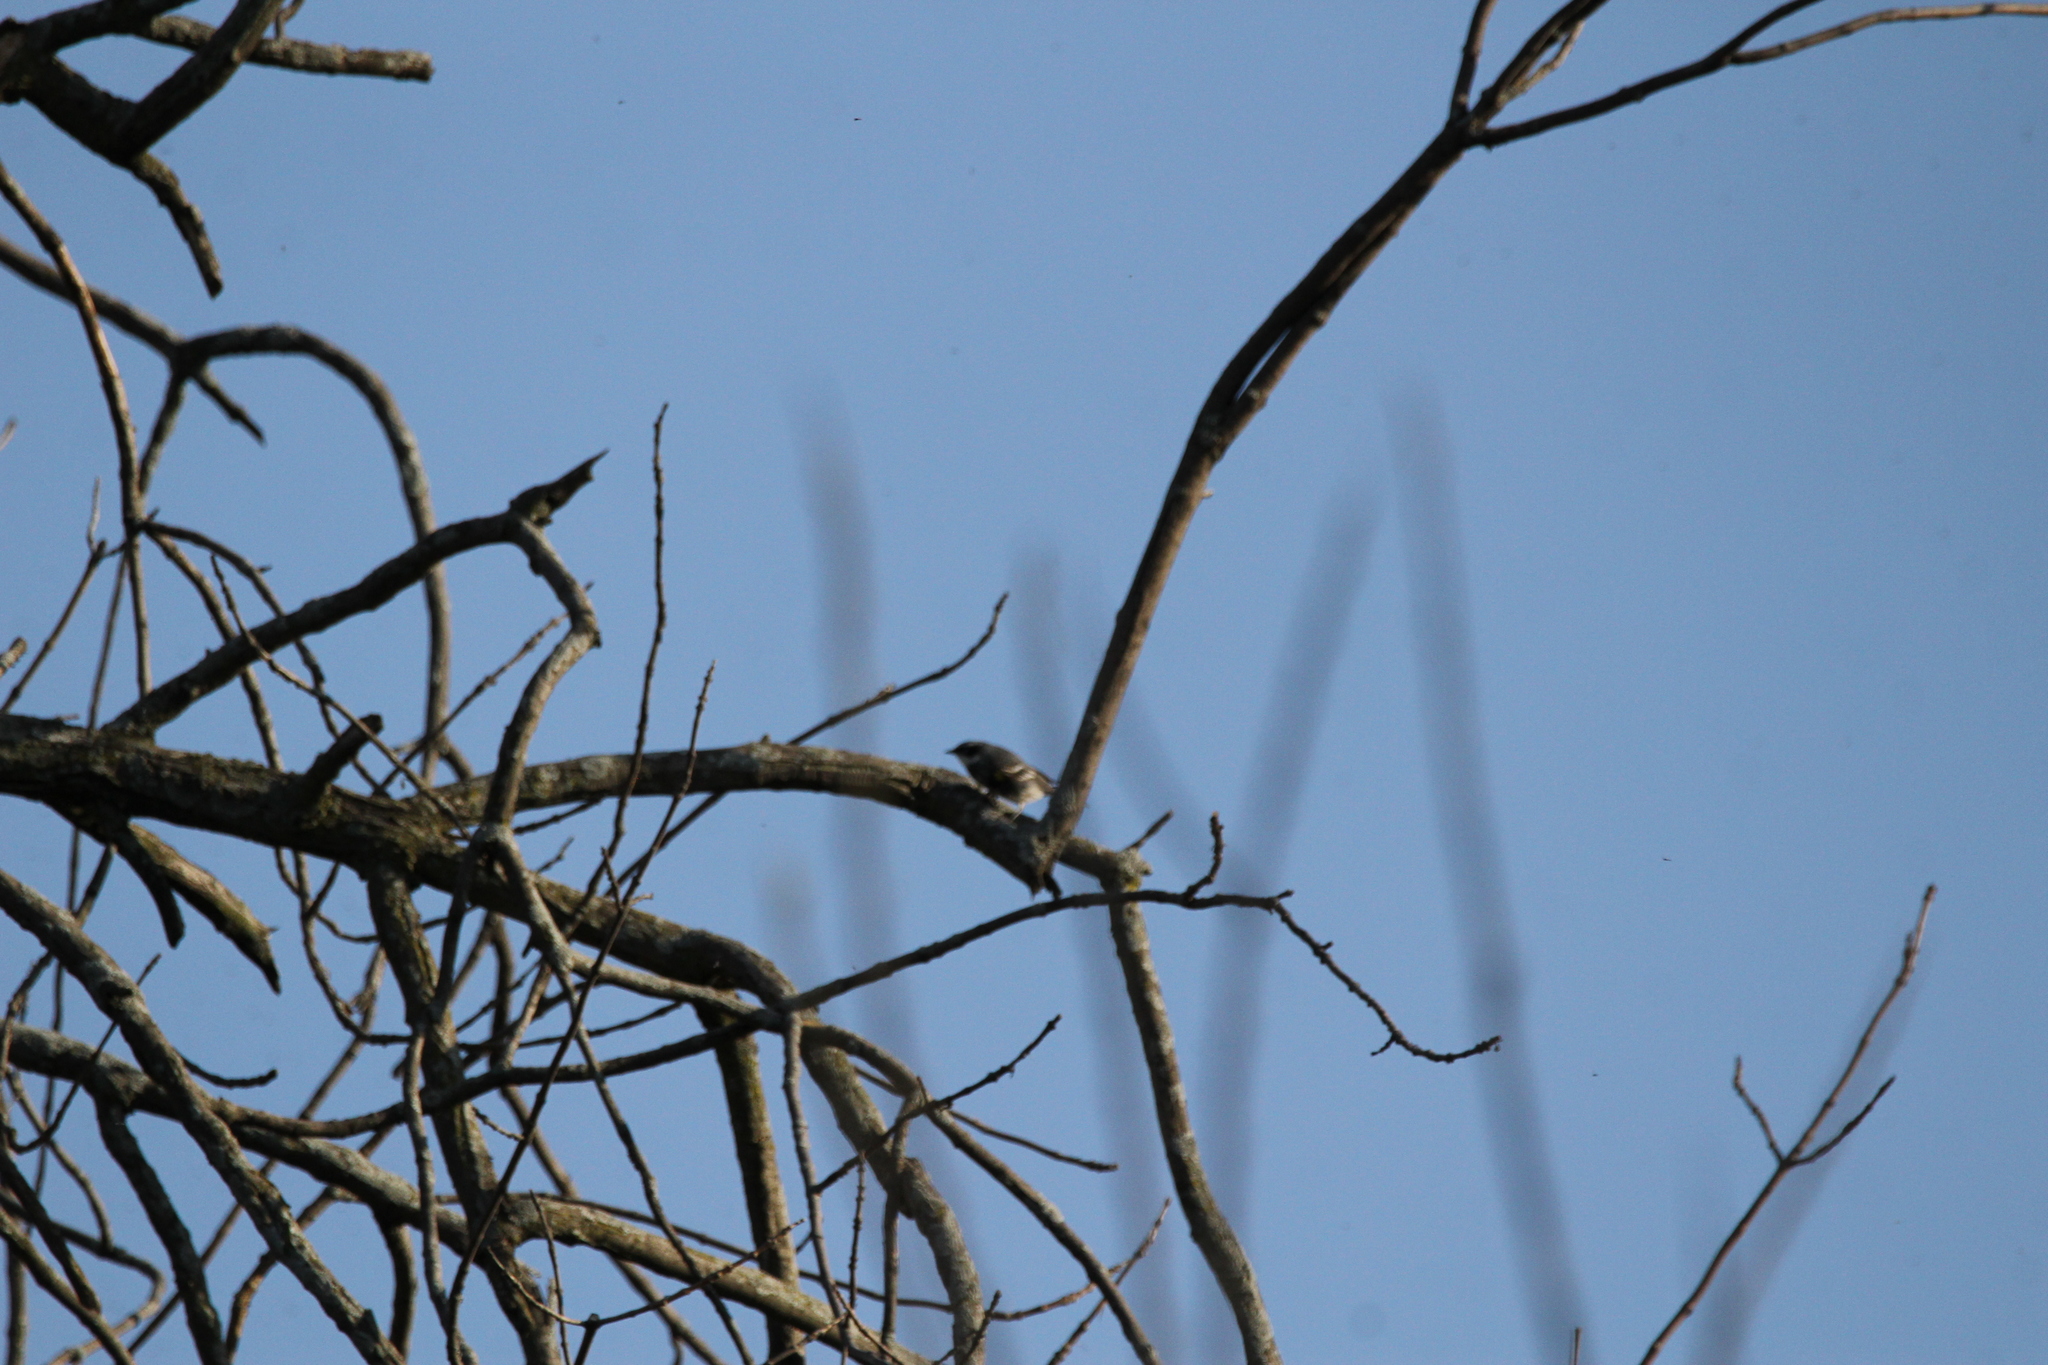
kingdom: Animalia
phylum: Chordata
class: Aves
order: Passeriformes
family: Parulidae
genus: Setophaga
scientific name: Setophaga coronata
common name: Myrtle warbler
